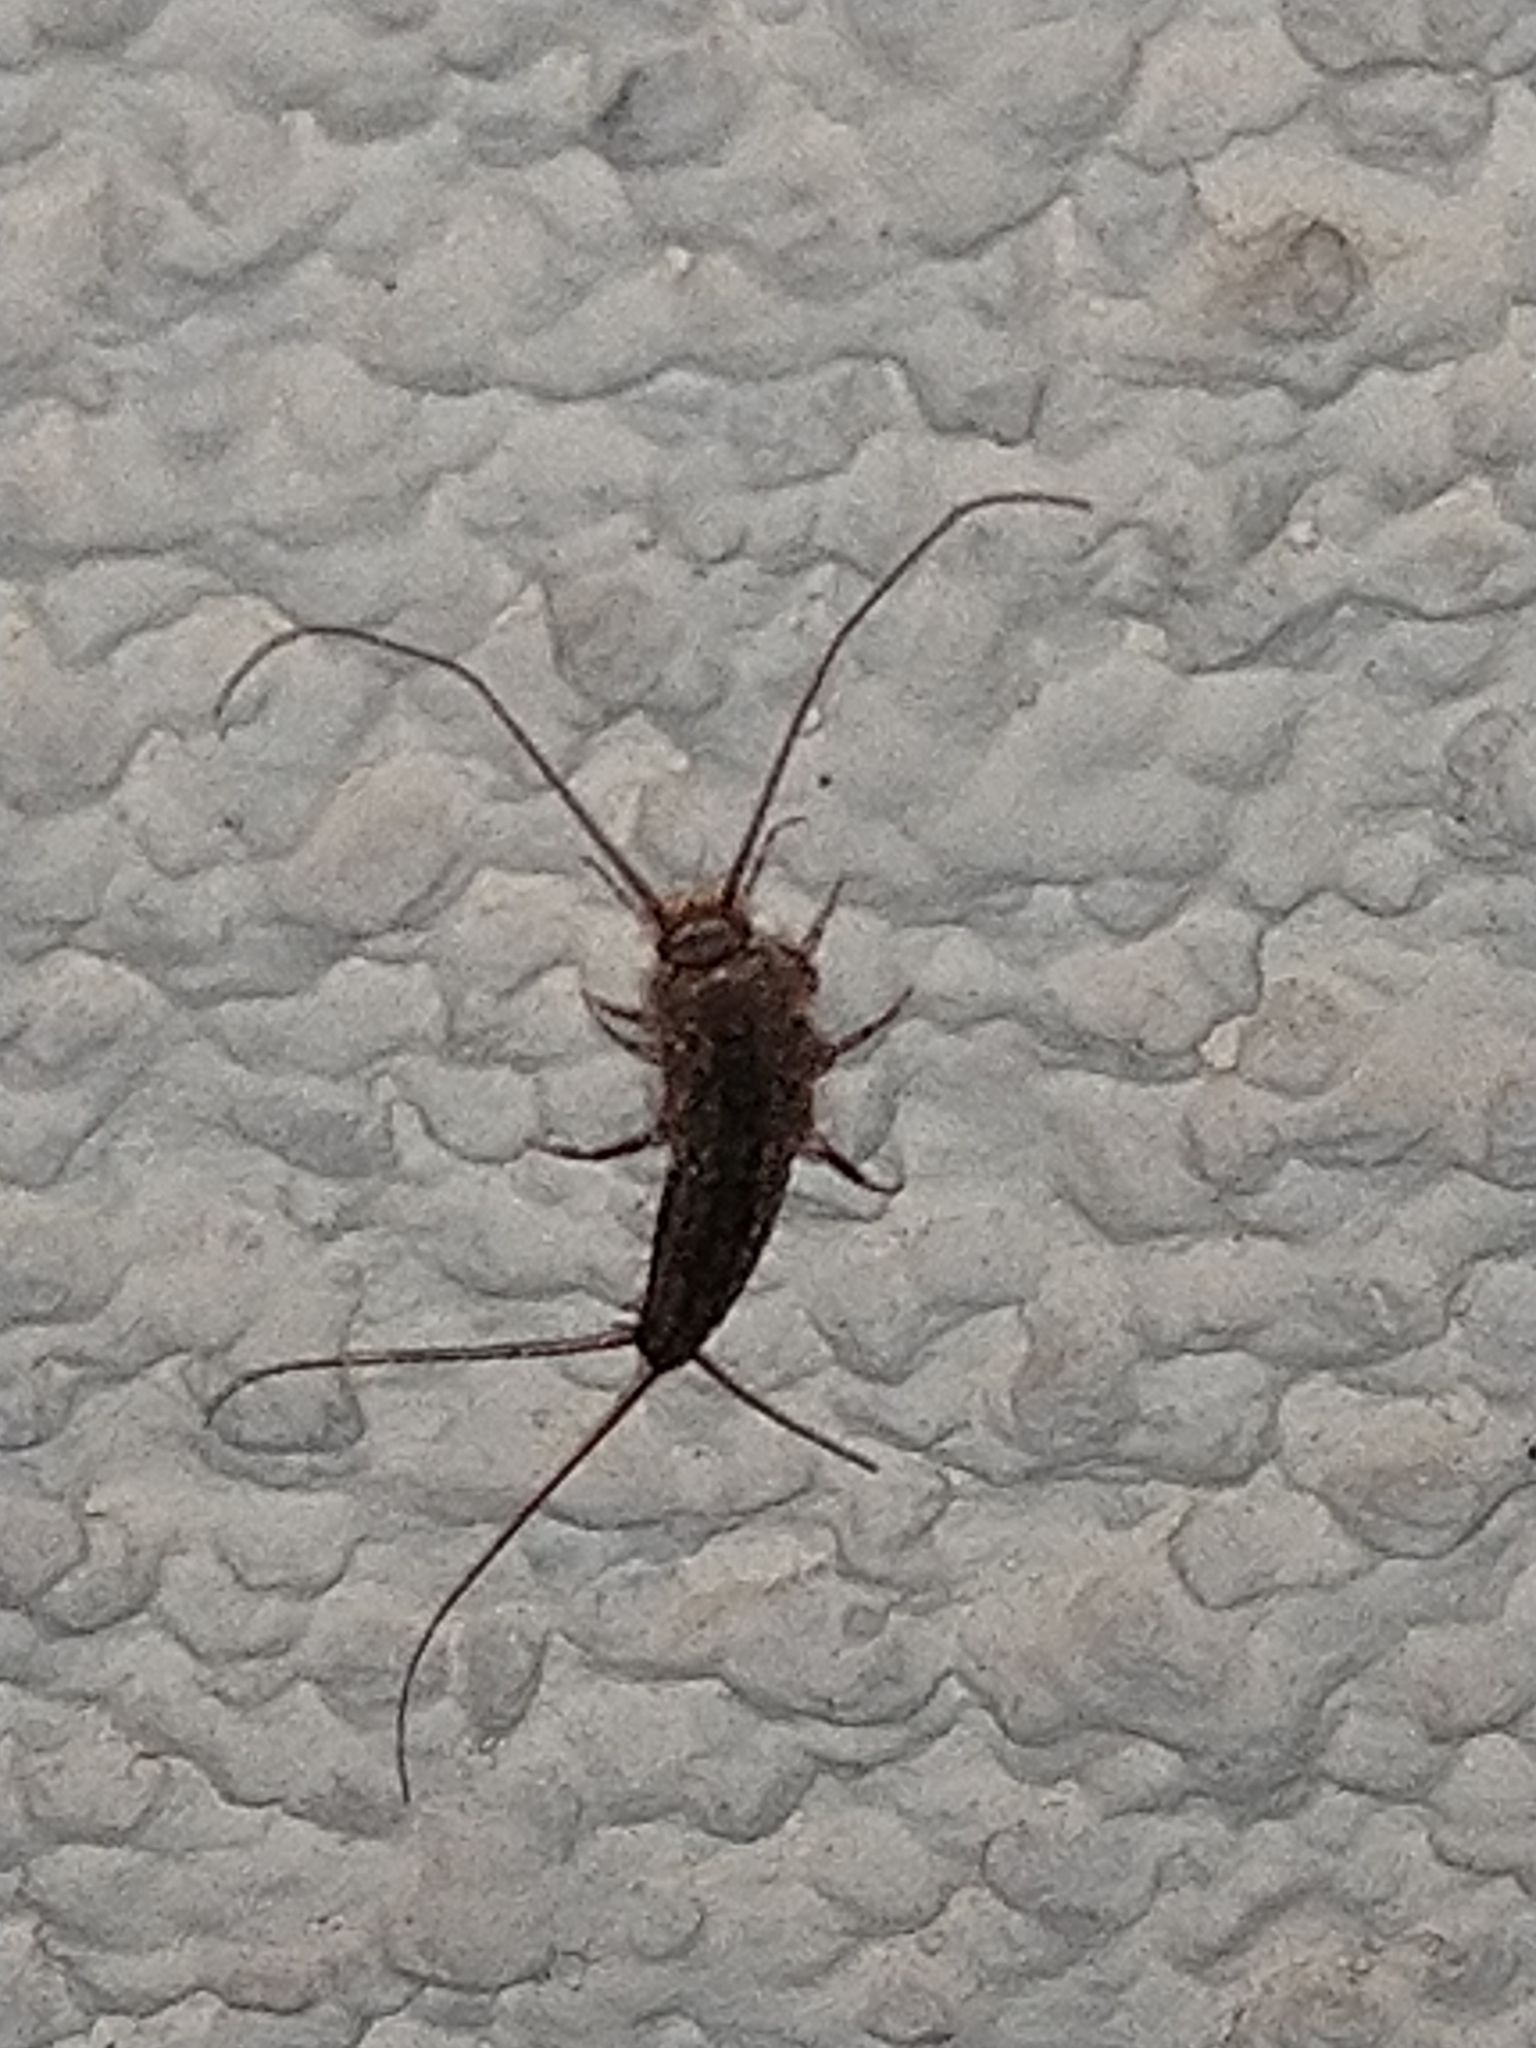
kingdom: Animalia
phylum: Arthropoda
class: Insecta
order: Zygentoma
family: Lepismatidae
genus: Ctenolepisma
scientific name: Ctenolepisma lineata
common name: Four-lined silverfish
